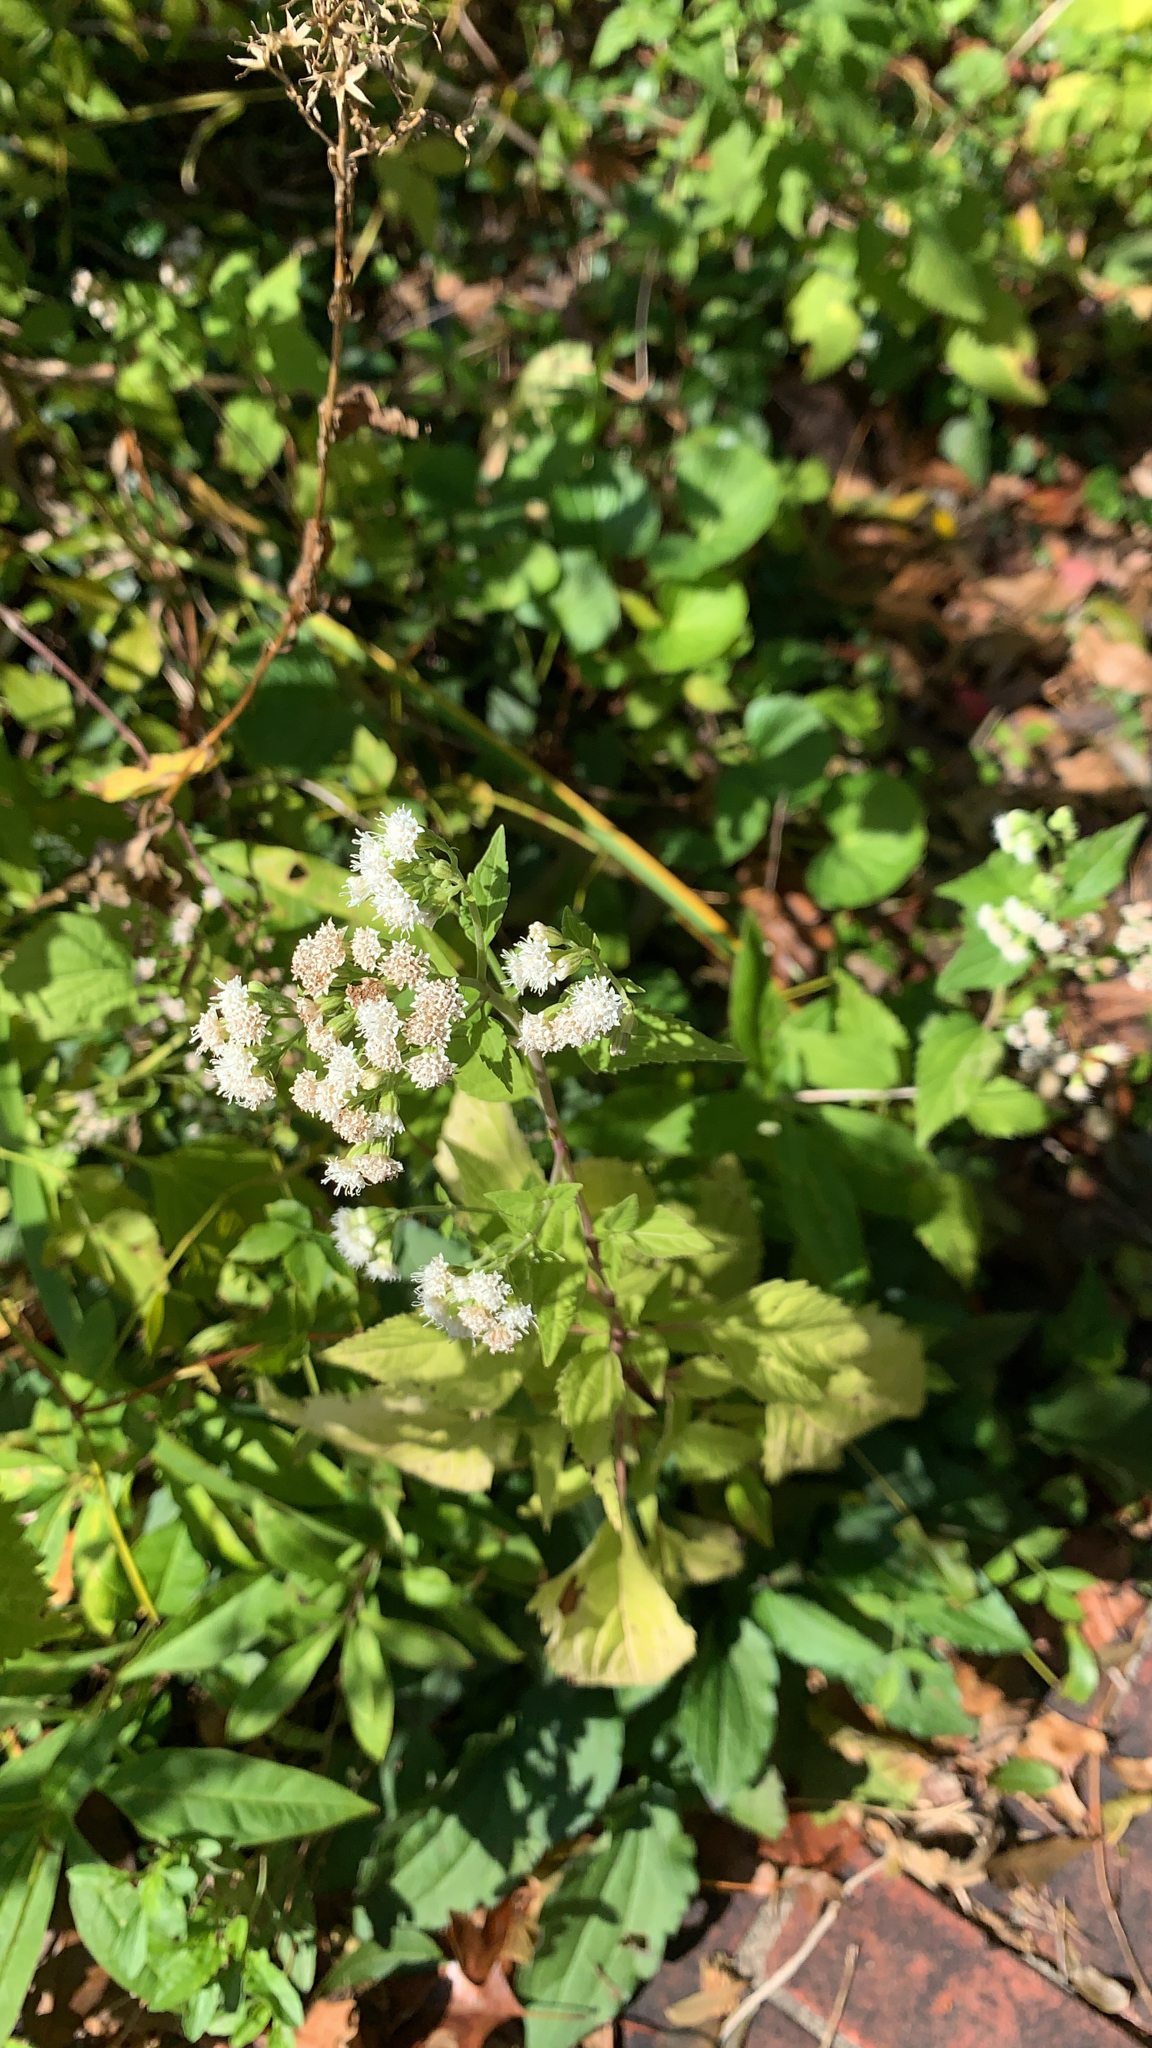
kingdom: Plantae
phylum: Tracheophyta
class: Magnoliopsida
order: Asterales
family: Asteraceae
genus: Ageratina
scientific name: Ageratina altissima
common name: White snakeroot
